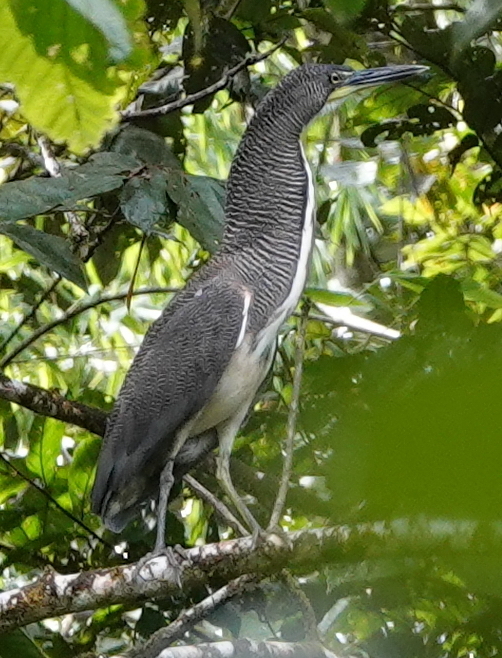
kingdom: Animalia
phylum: Chordata
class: Aves
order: Pelecaniformes
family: Ardeidae
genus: Tigrisoma
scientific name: Tigrisoma fasciatum
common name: Fasciated tiger-heron
